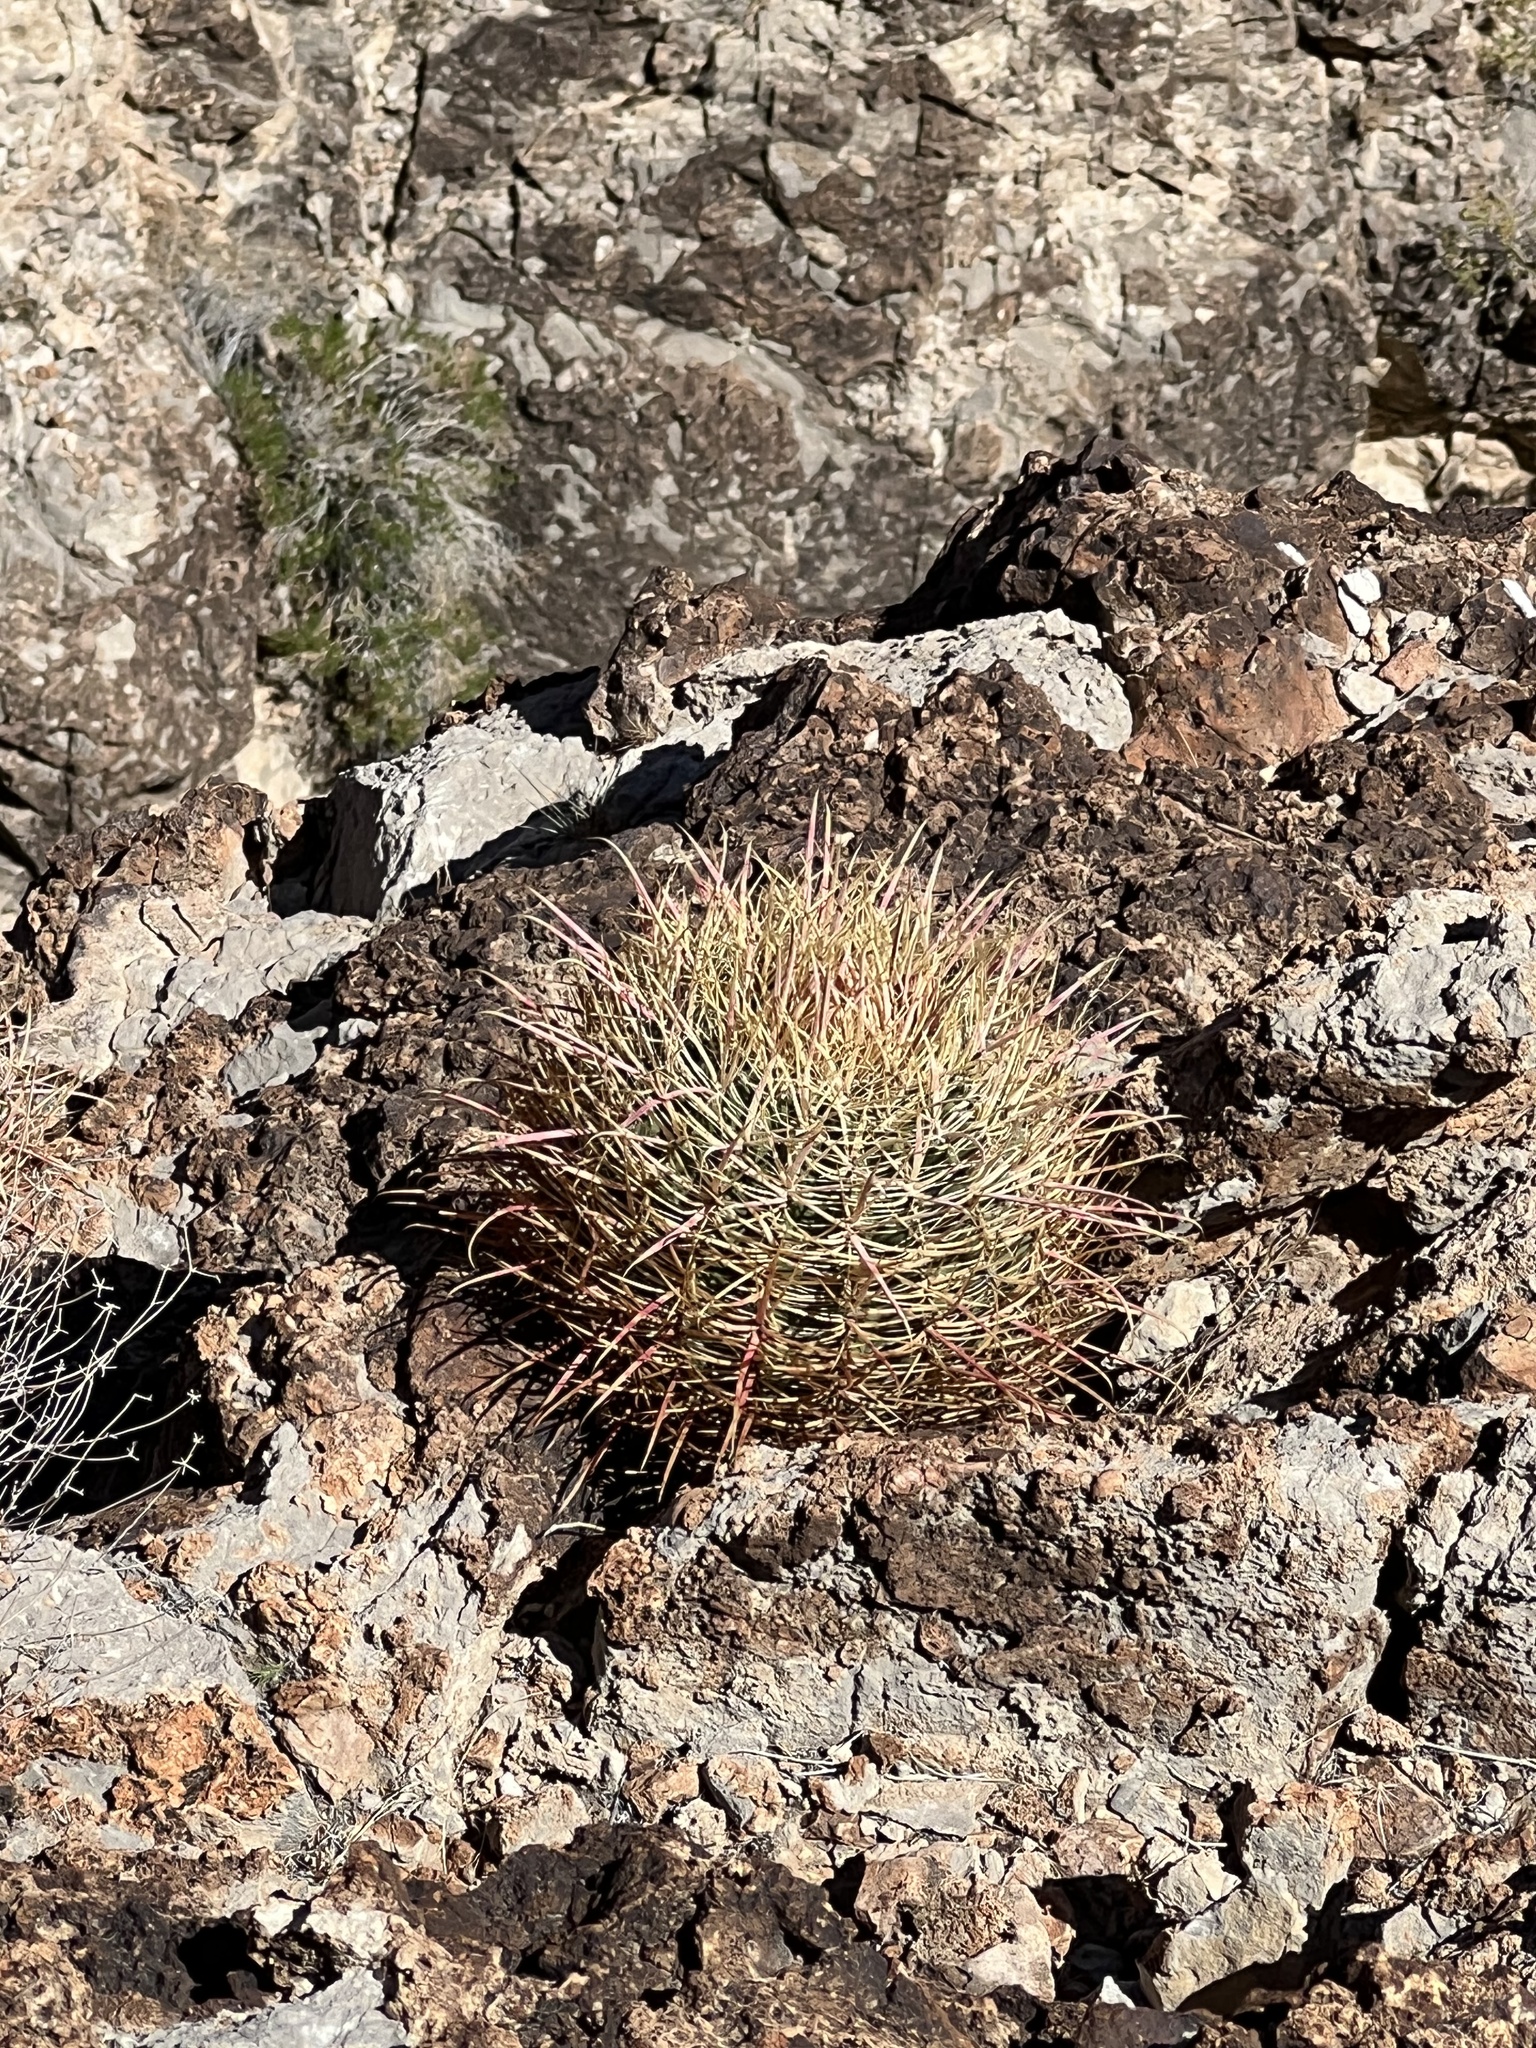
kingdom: Plantae
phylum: Tracheophyta
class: Magnoliopsida
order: Caryophyllales
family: Cactaceae
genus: Ferocactus
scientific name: Ferocactus cylindraceus
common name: California barrel cactus
